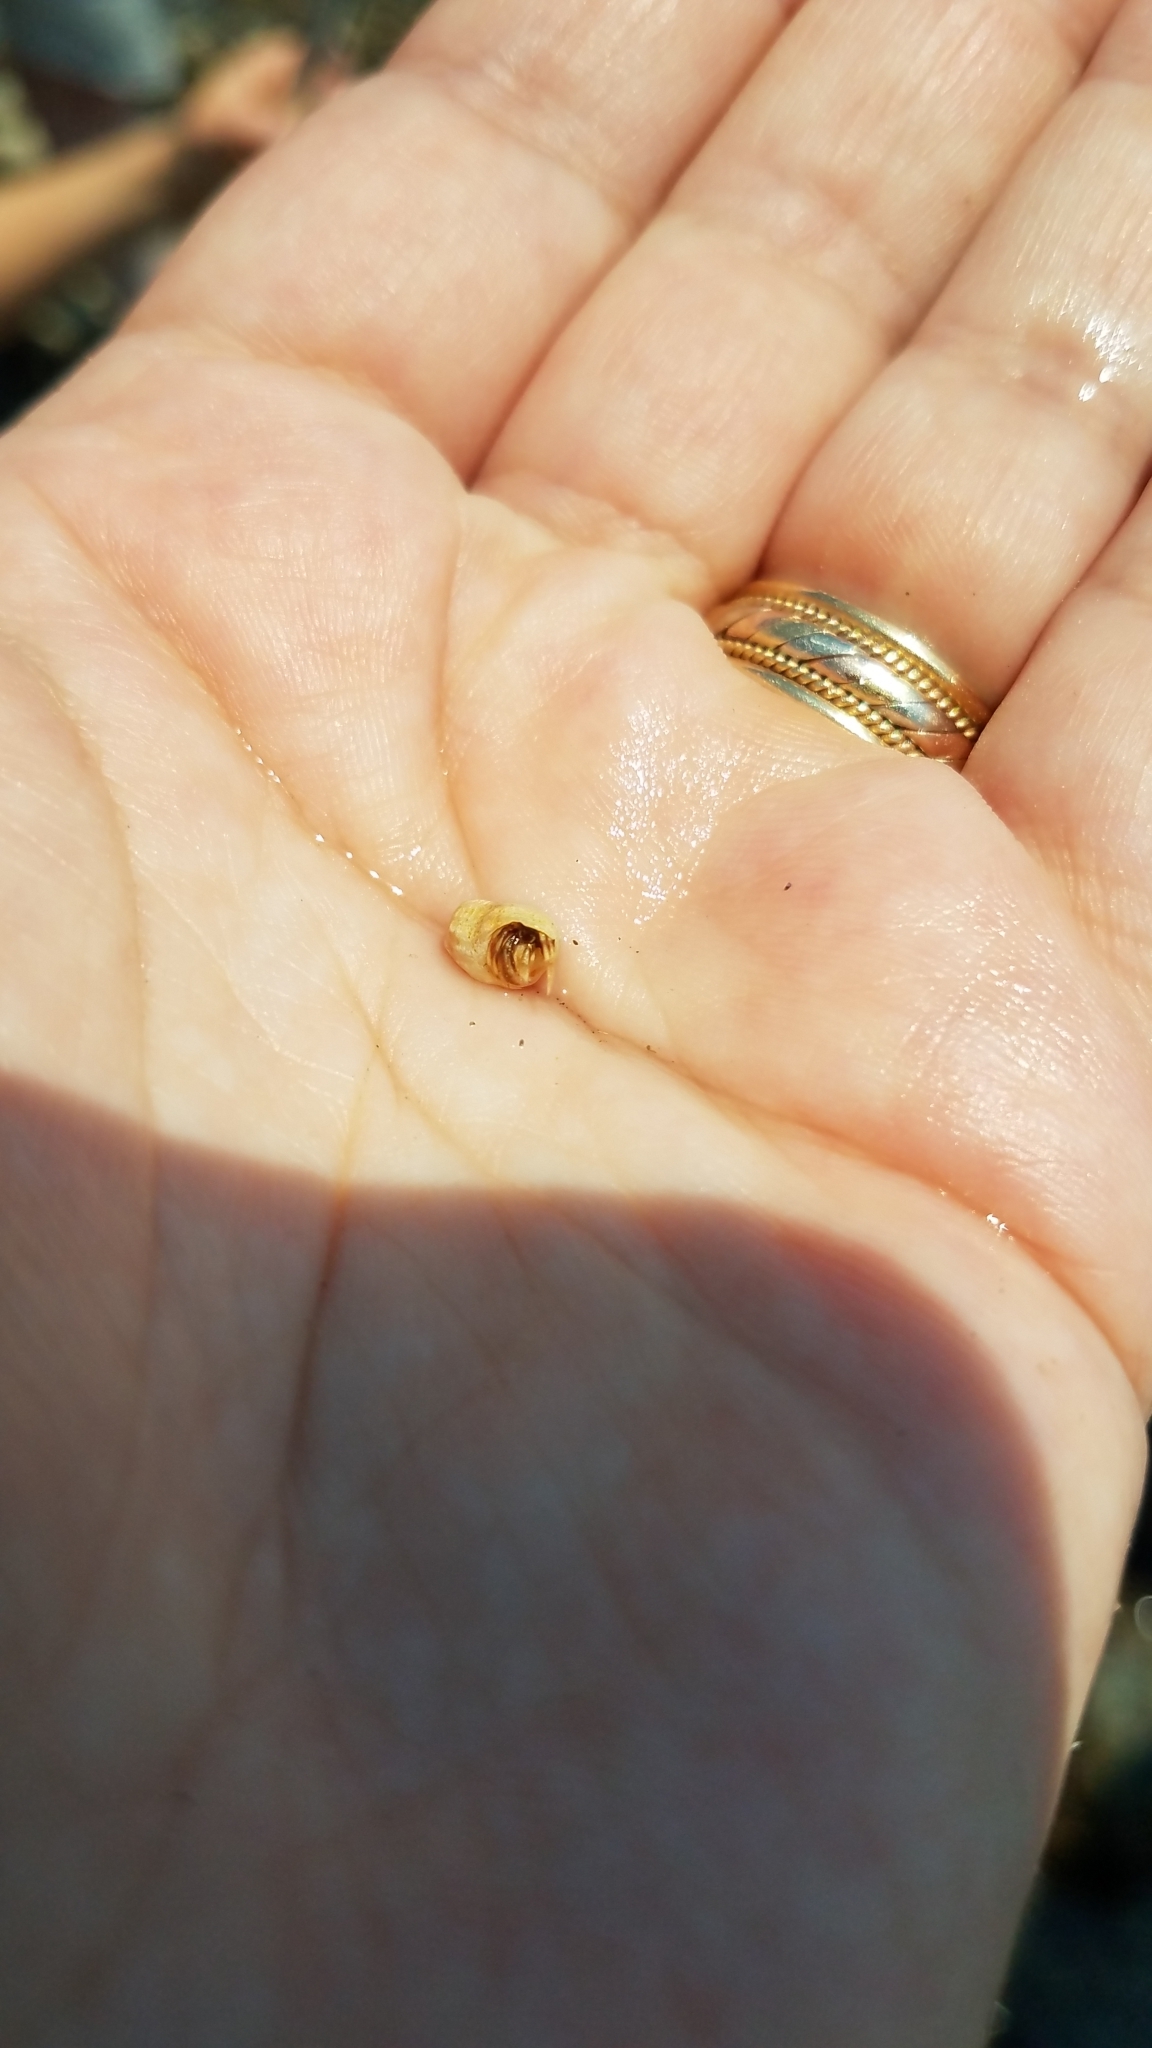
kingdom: Animalia
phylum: Arthropoda
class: Malacostraca
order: Decapoda
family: Paguridae
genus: Pagurus
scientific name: Pagurus longicarpus
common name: Long-armed hermit crab
